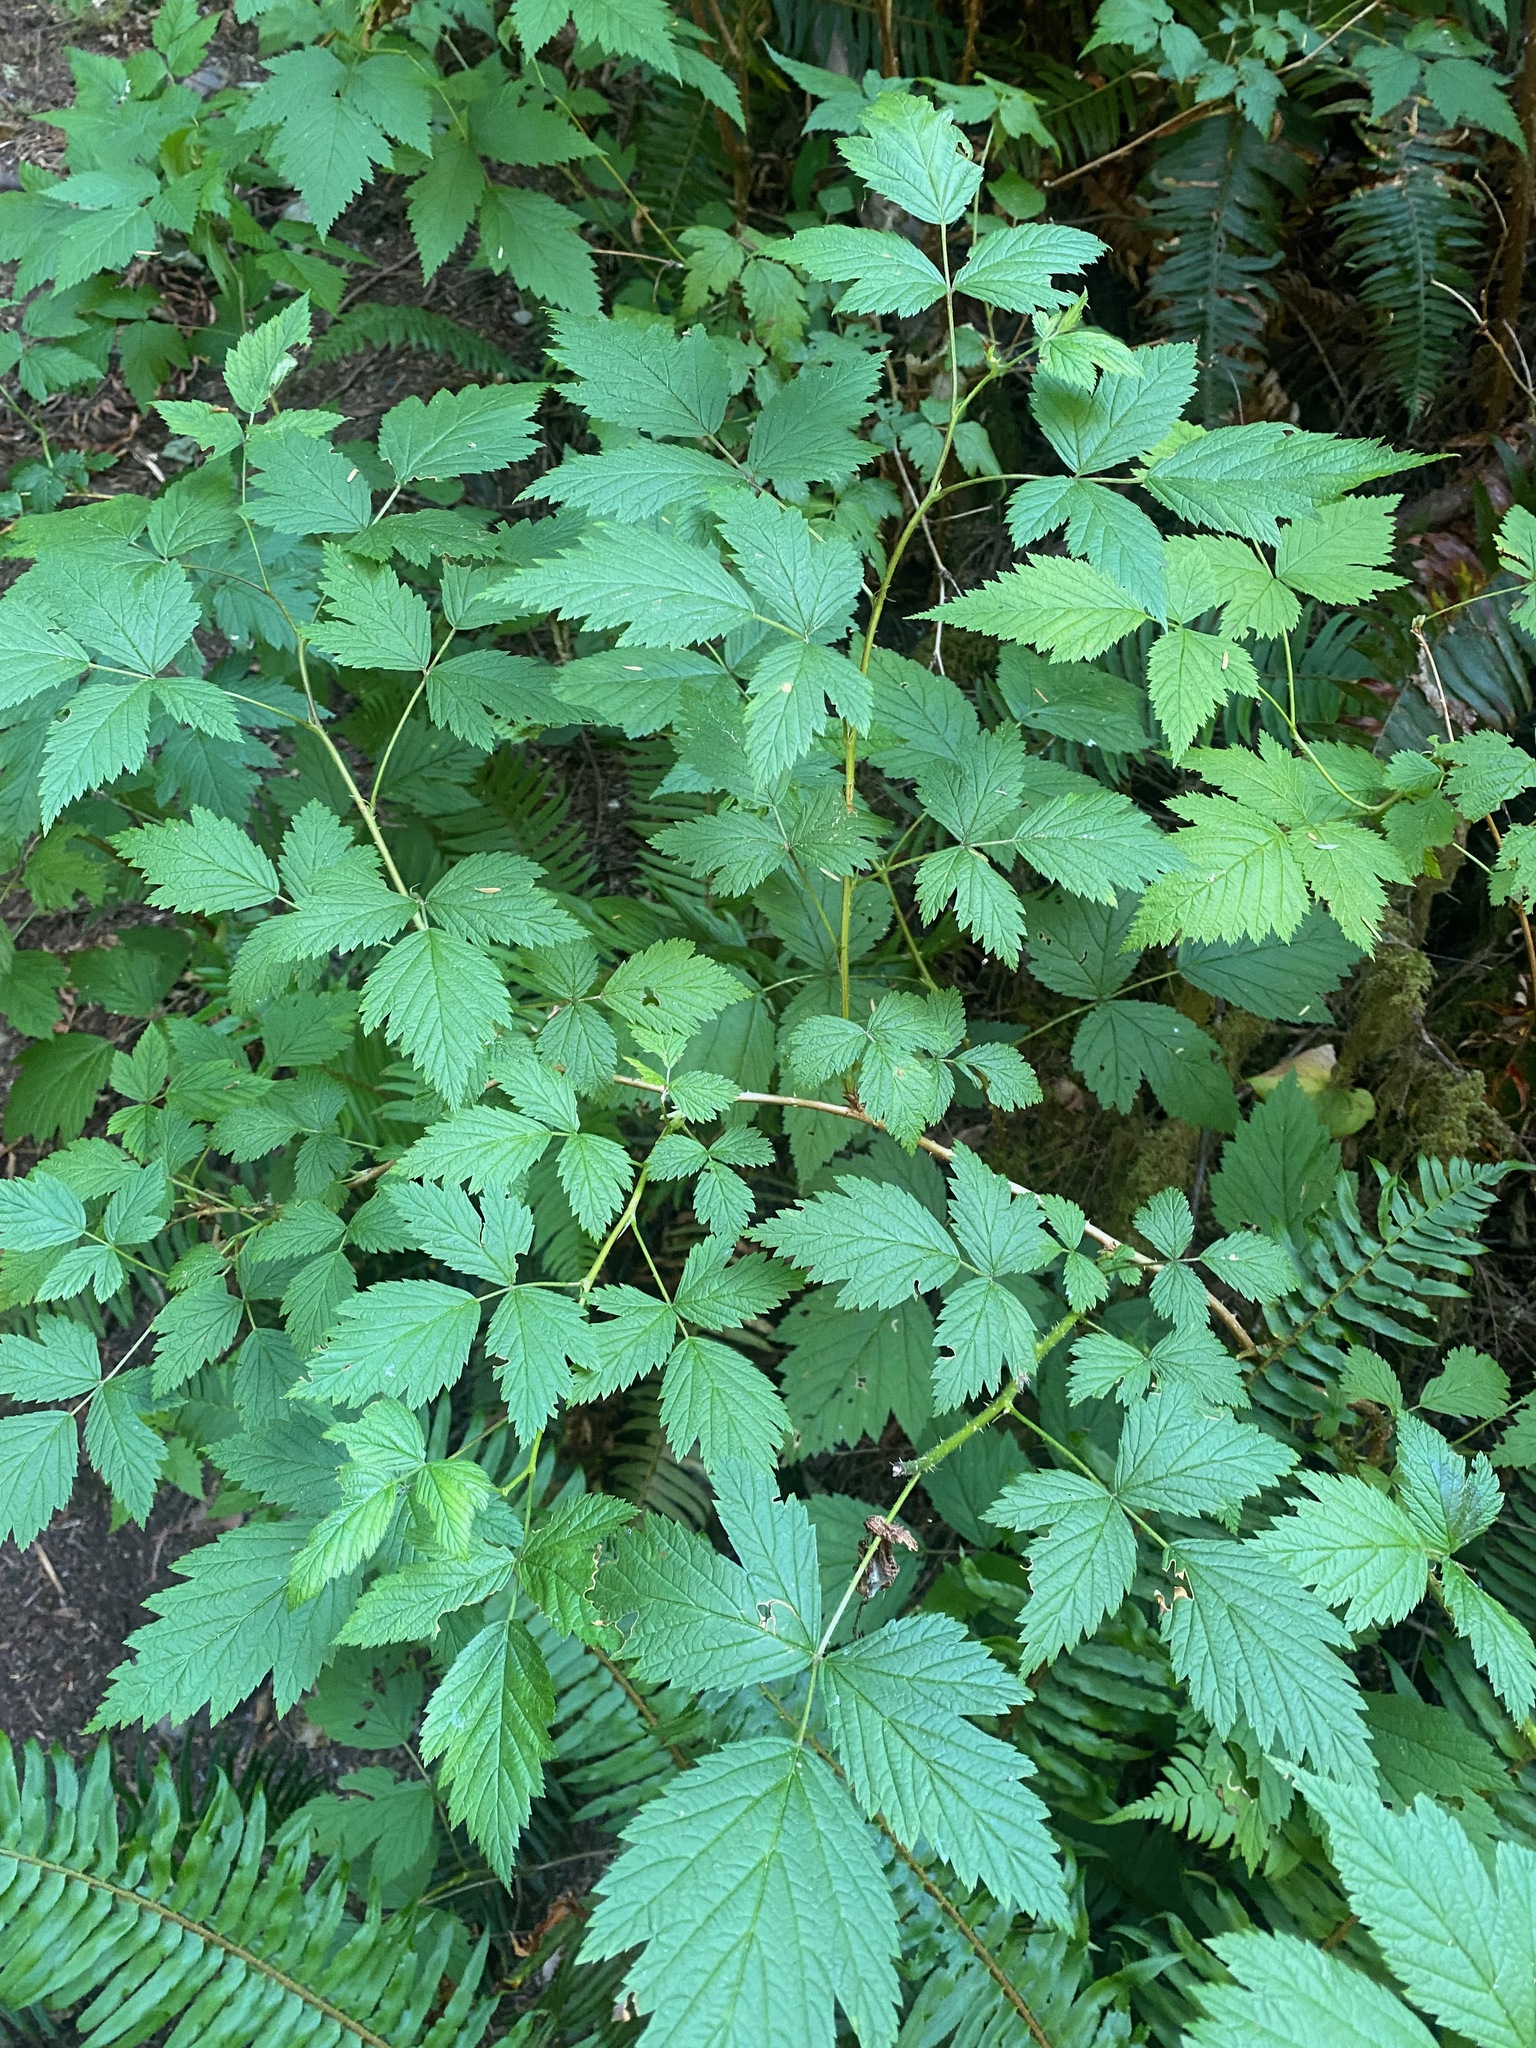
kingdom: Plantae
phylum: Tracheophyta
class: Magnoliopsida
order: Rosales
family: Rosaceae
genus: Rubus
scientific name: Rubus spectabilis
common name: Salmonberry
